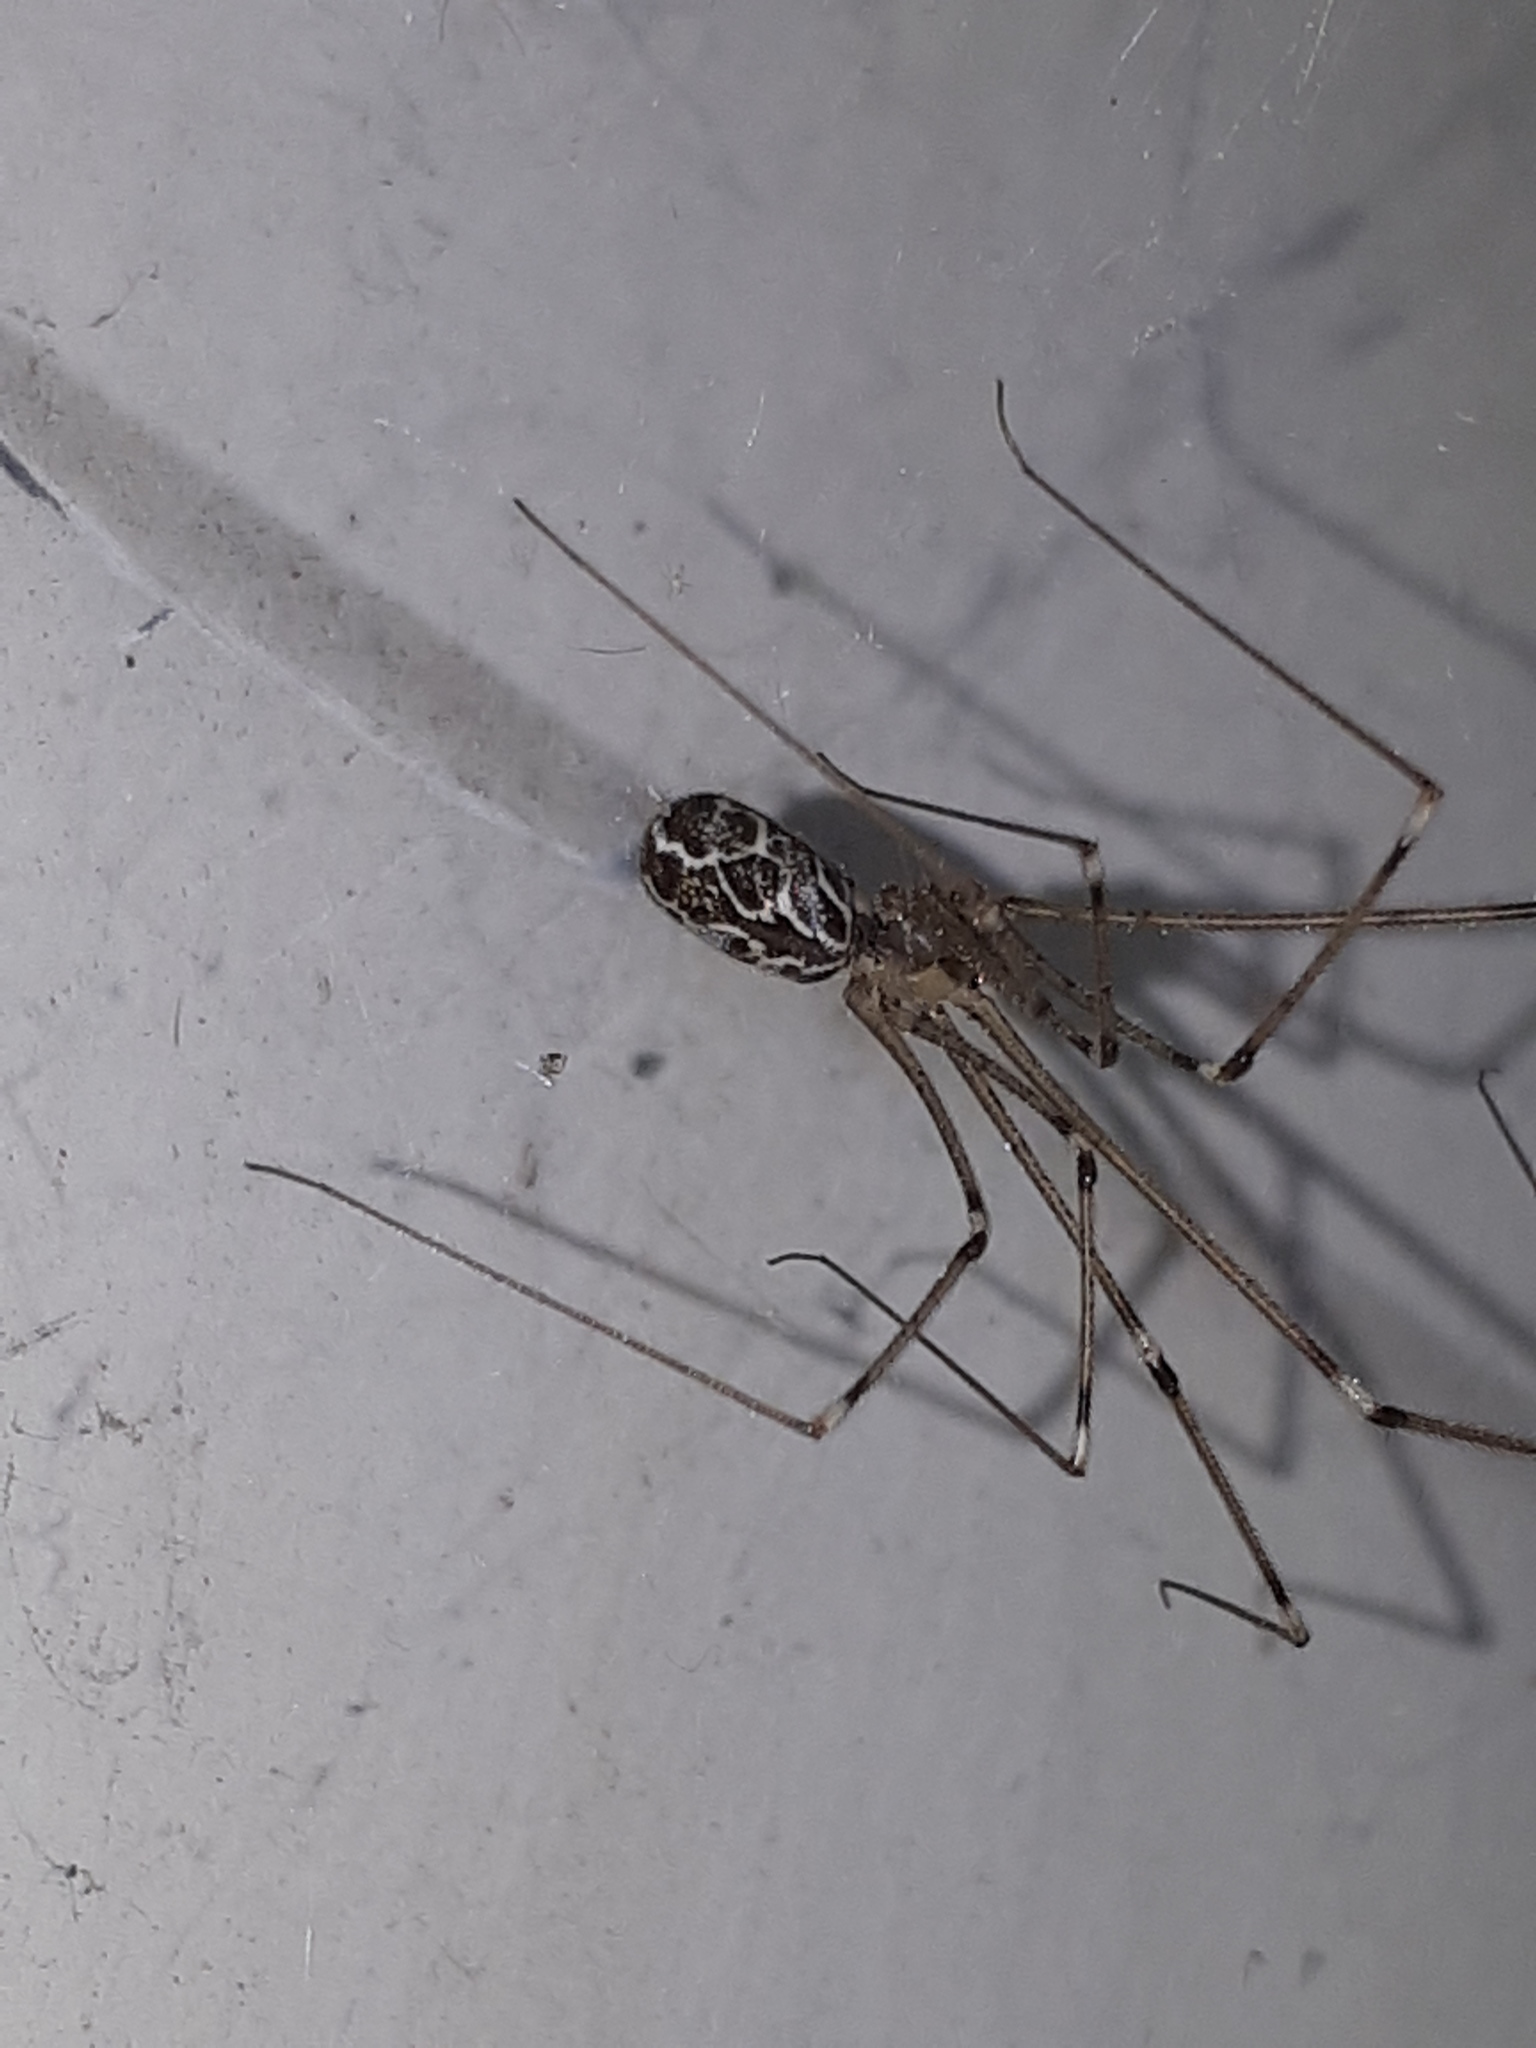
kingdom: Animalia
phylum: Arthropoda
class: Arachnida
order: Araneae
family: Pholcidae
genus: Holocnemus
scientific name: Holocnemus pluchei
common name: Marbled cellar spider
